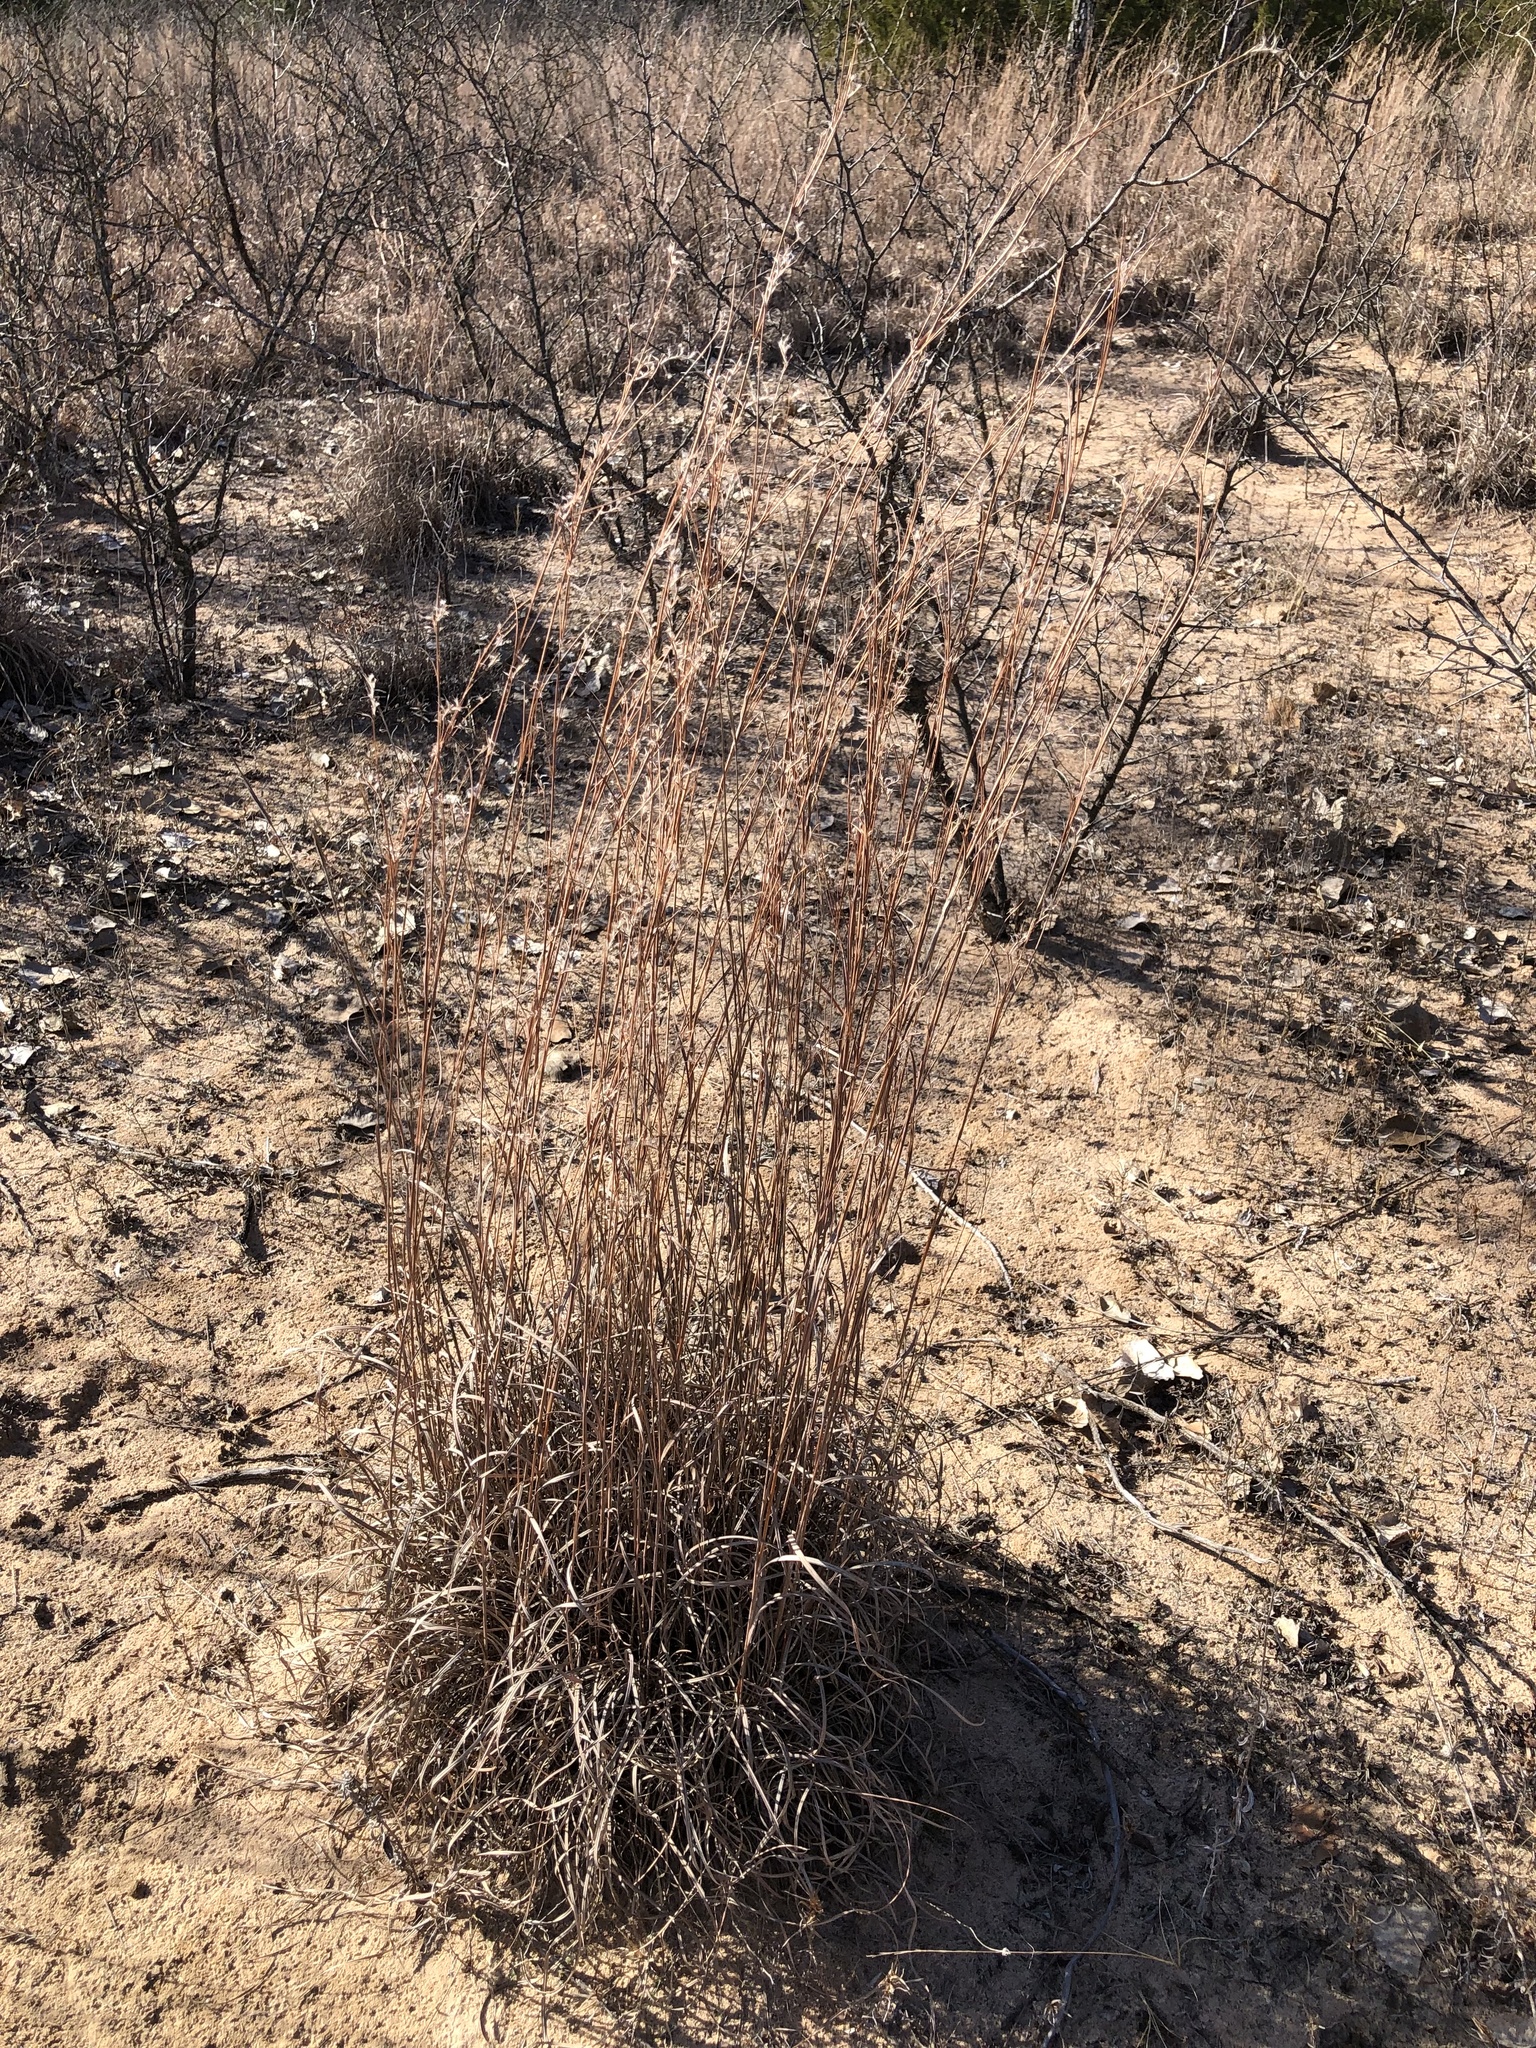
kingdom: Plantae
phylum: Tracheophyta
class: Liliopsida
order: Poales
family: Poaceae
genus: Schizachyrium
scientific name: Schizachyrium scoparium
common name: Little bluestem
